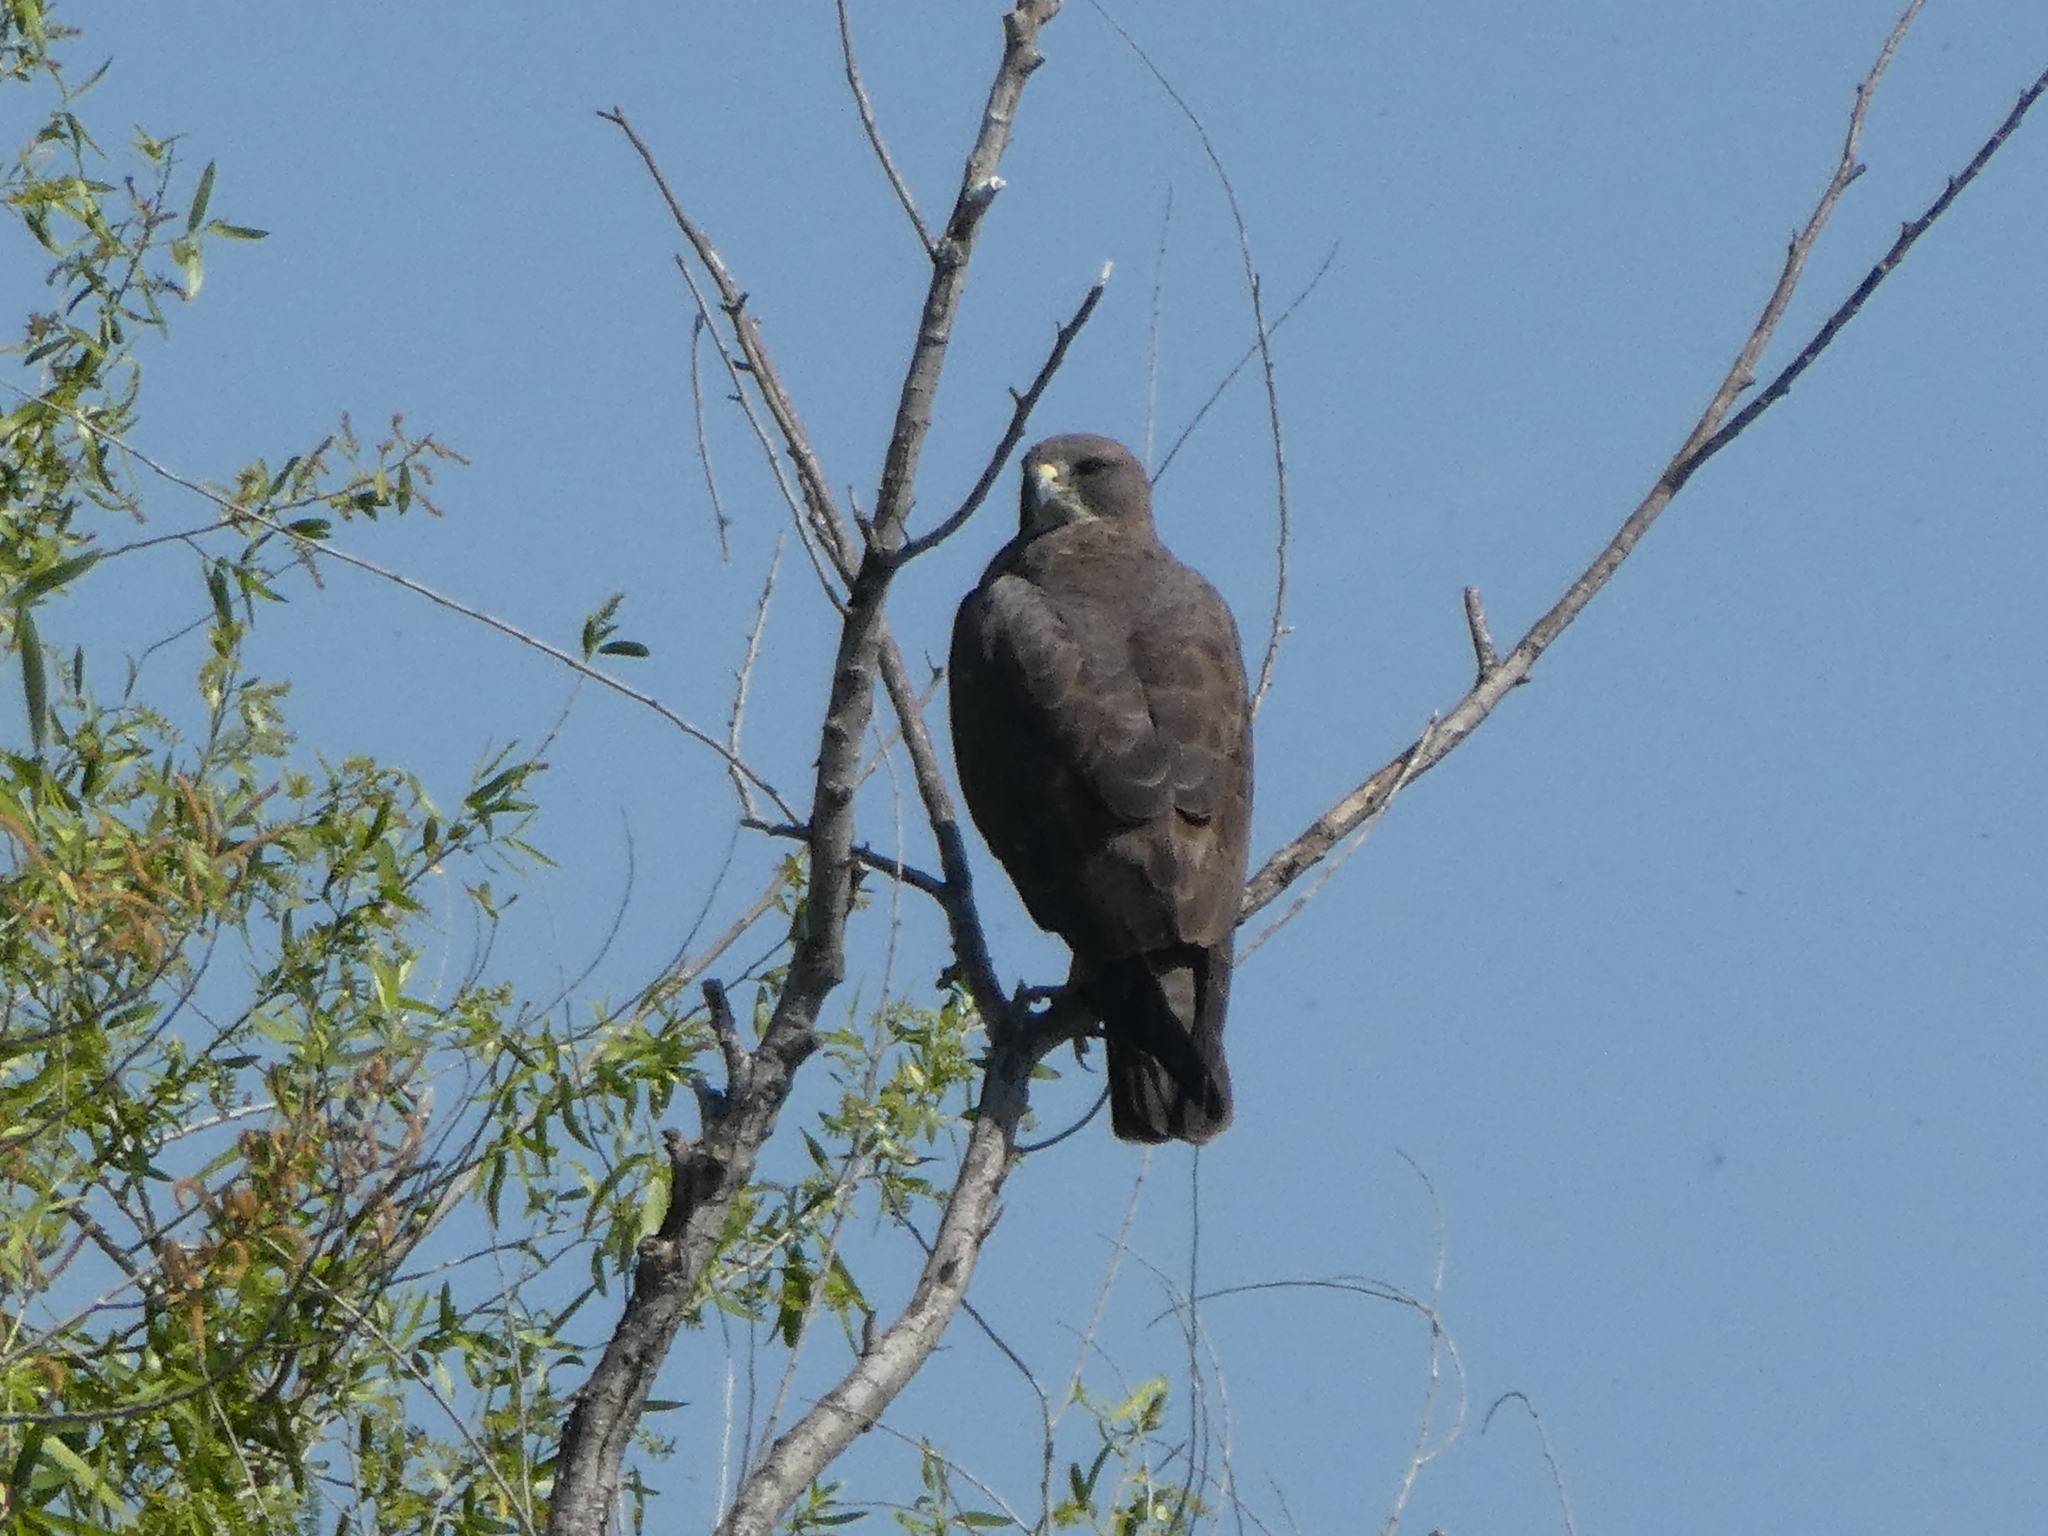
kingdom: Animalia
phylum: Chordata
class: Aves
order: Accipitriformes
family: Accipitridae
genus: Buteo
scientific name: Buteo swainsoni
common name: Swainson's hawk
